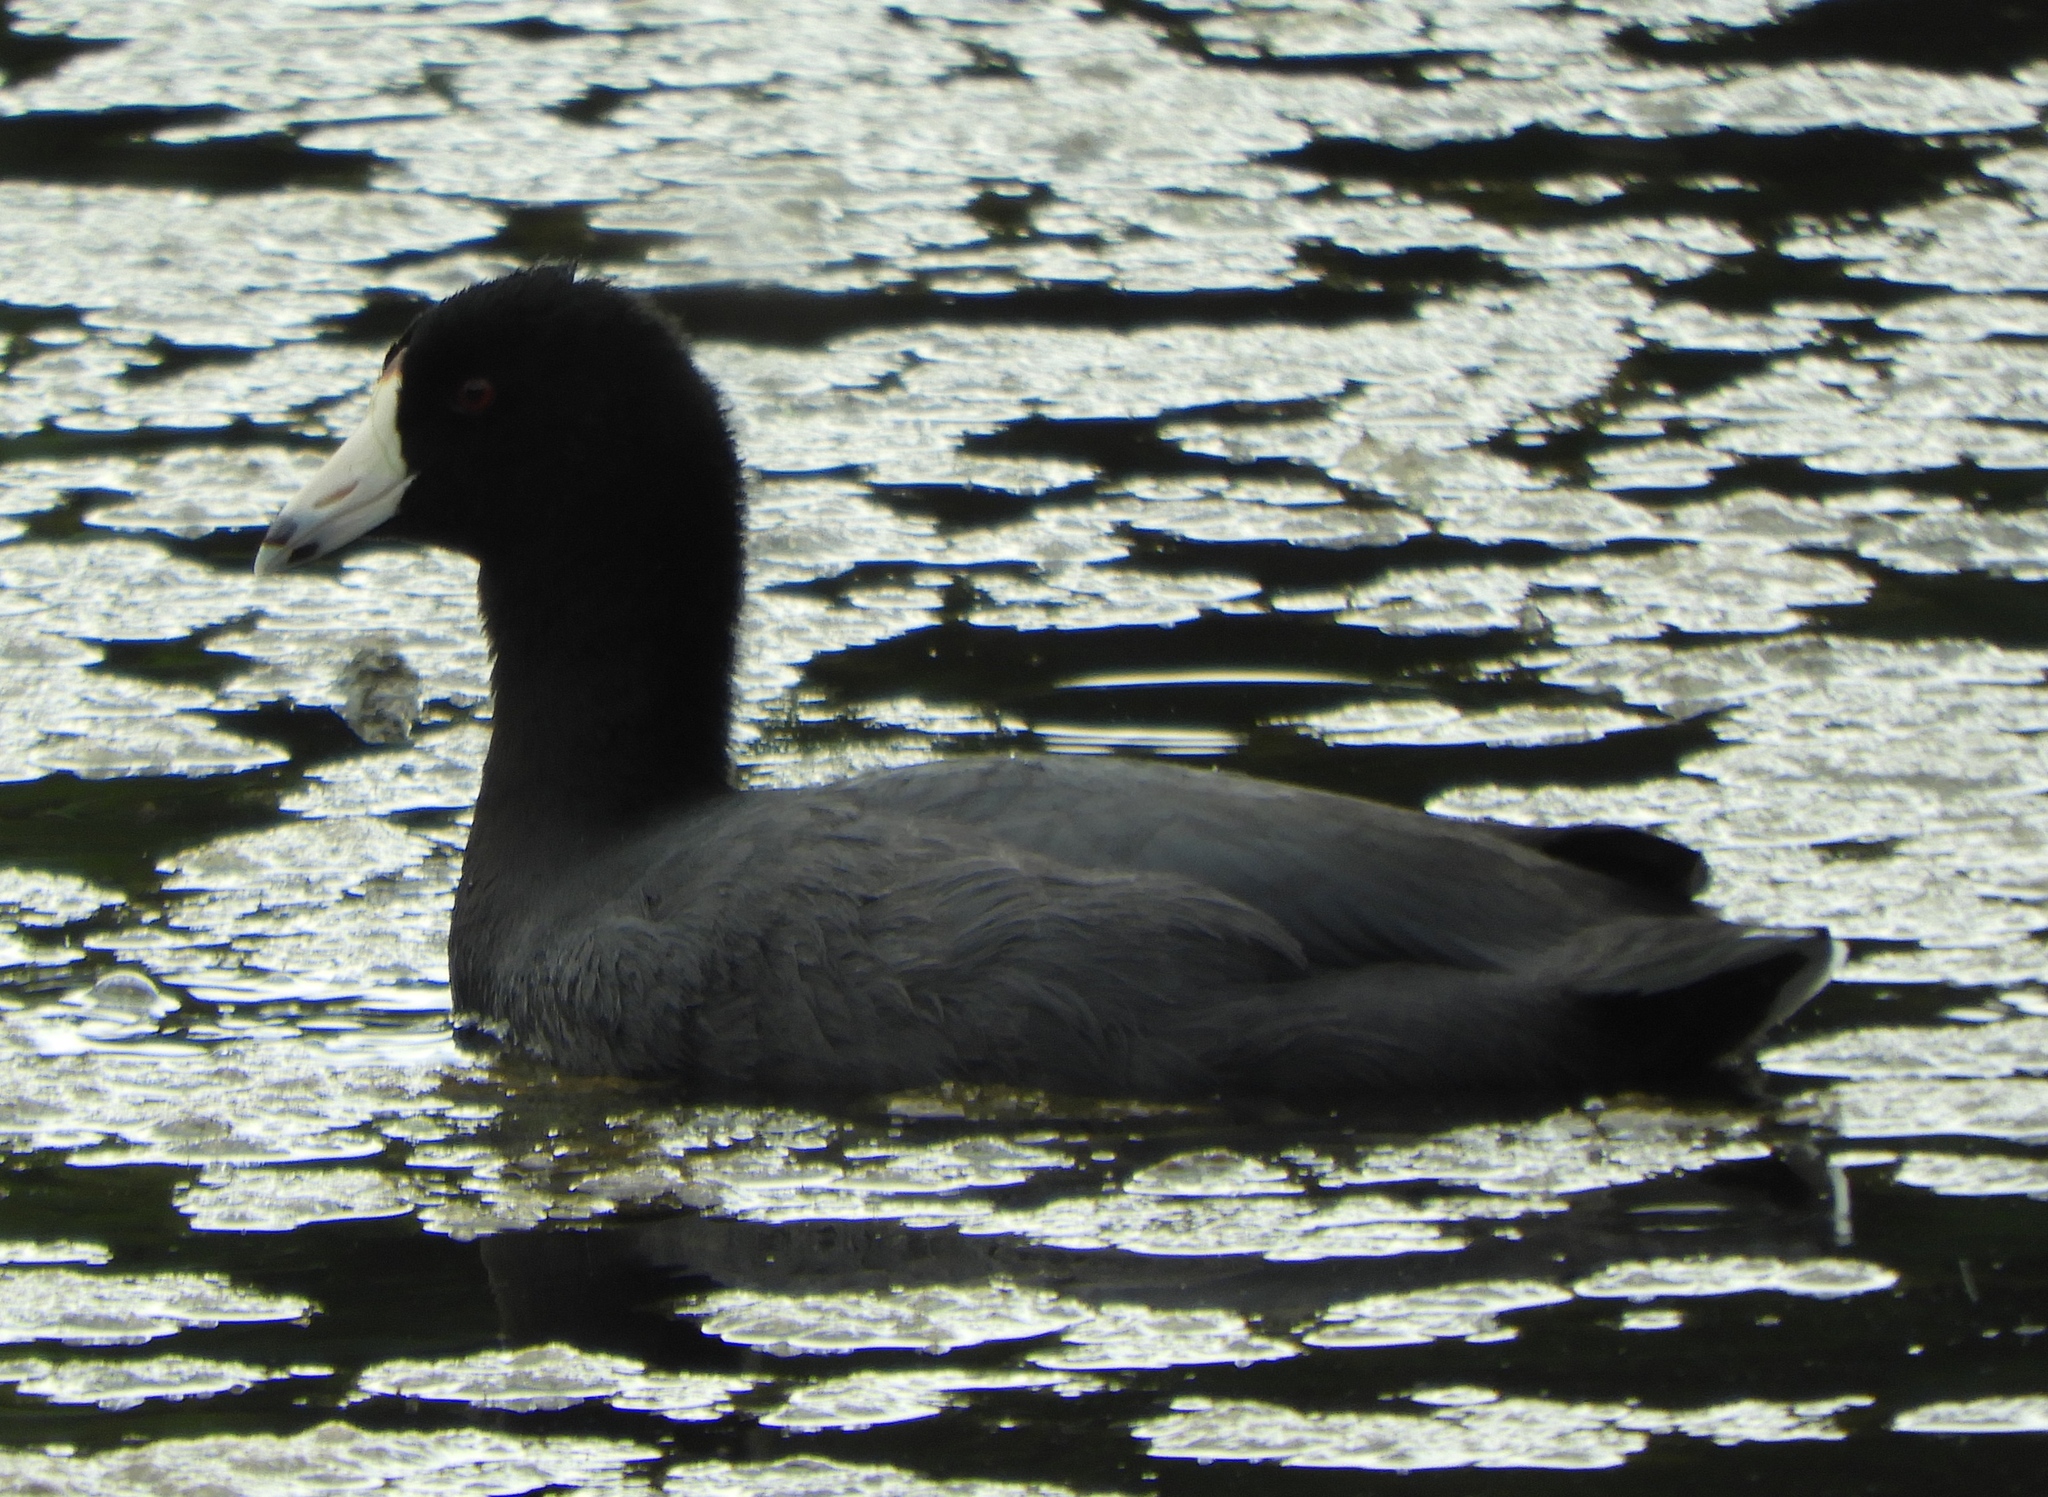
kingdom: Animalia
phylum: Chordata
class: Aves
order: Gruiformes
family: Rallidae
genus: Fulica
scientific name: Fulica americana
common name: American coot
